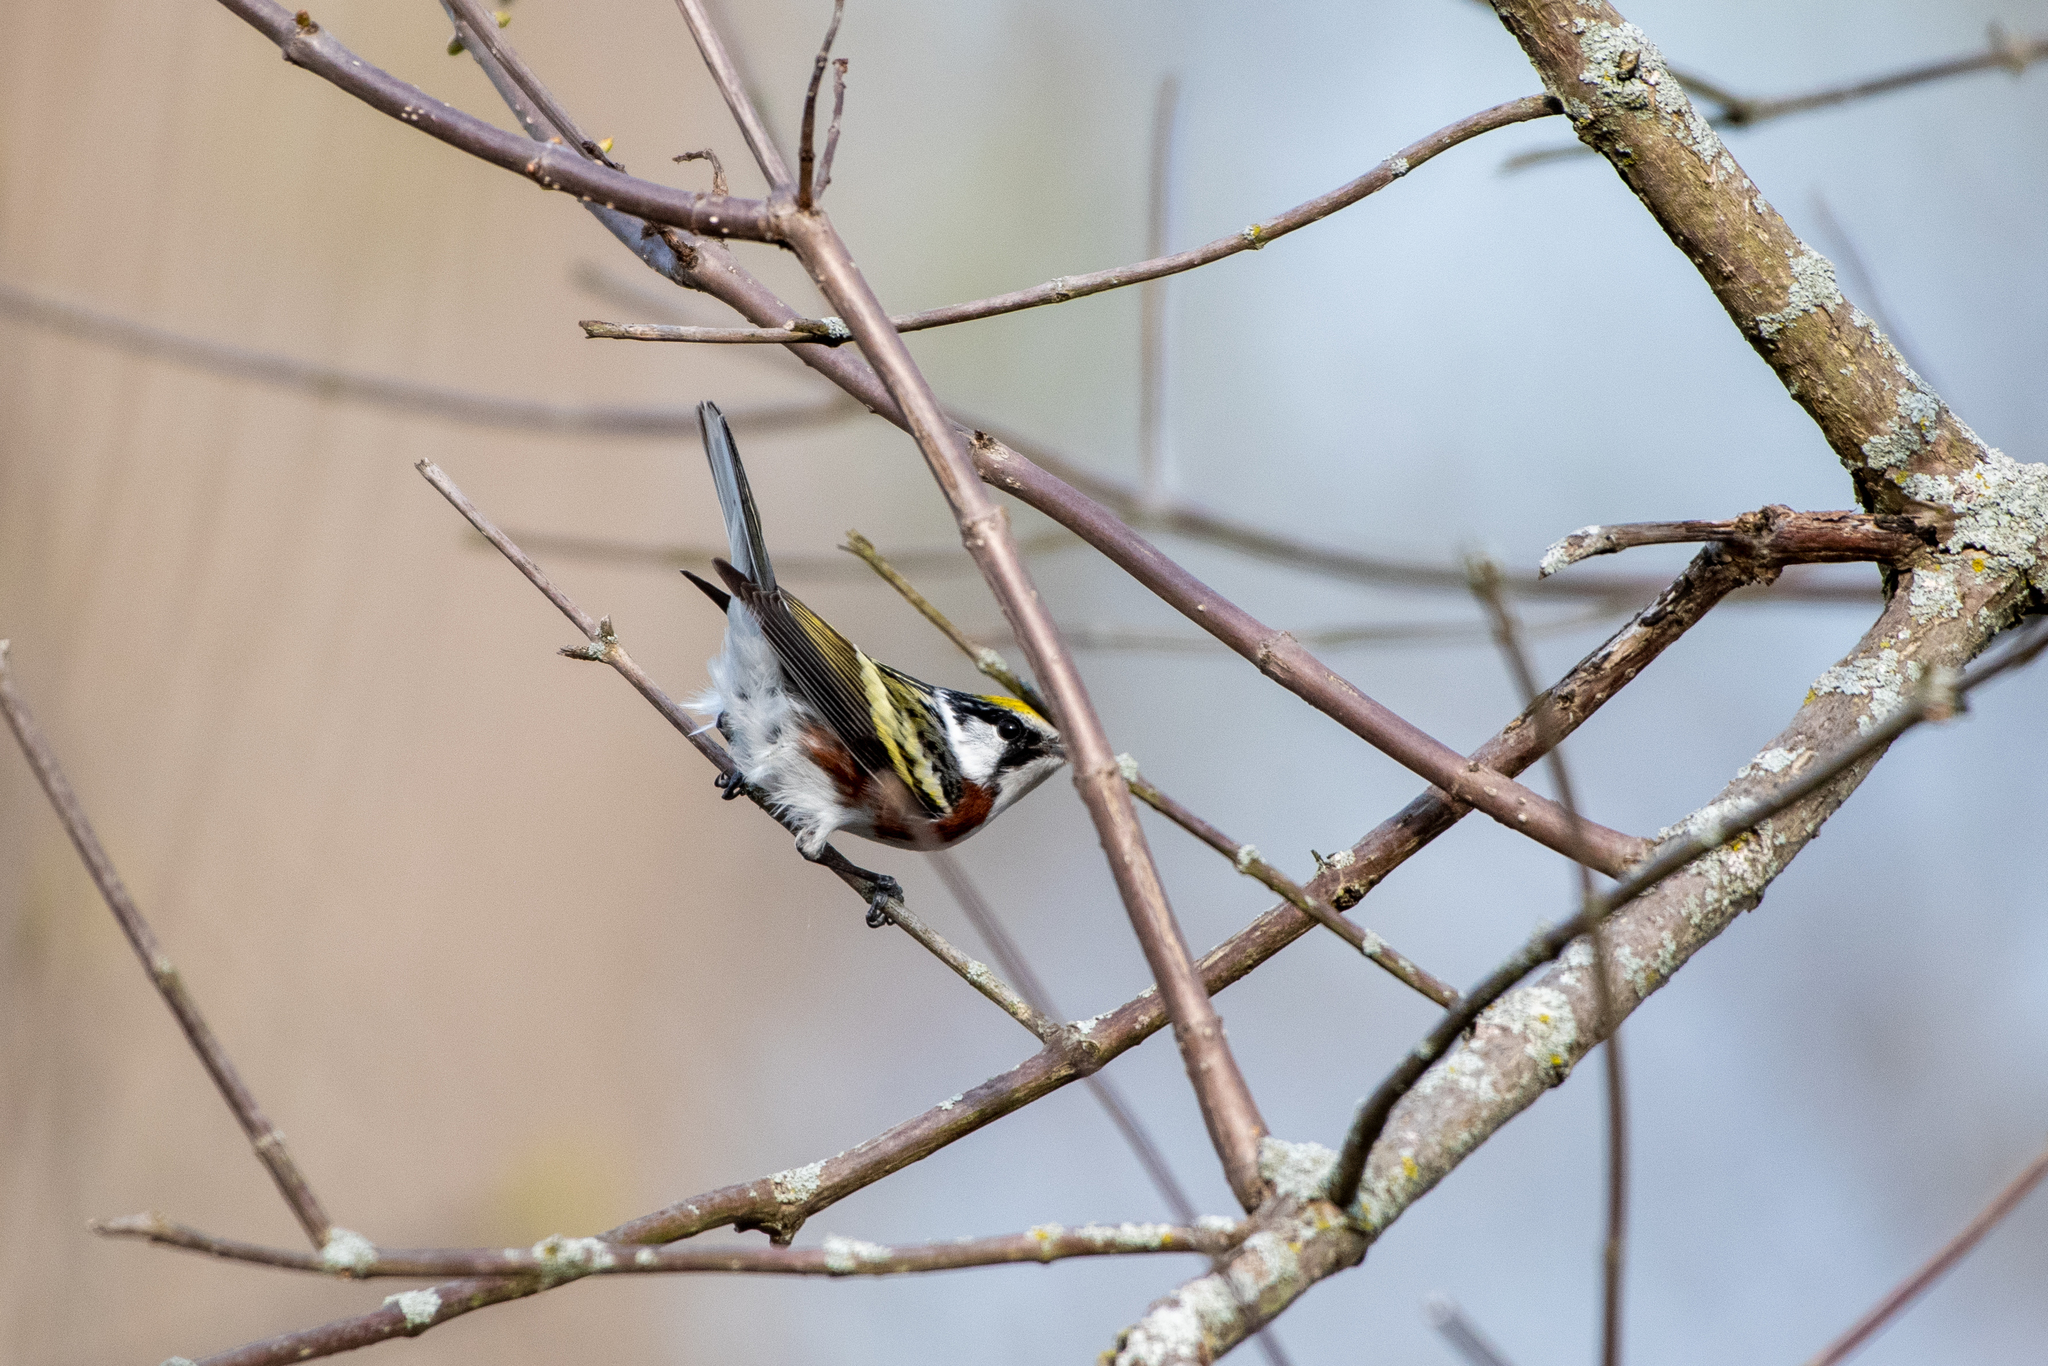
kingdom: Animalia
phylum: Chordata
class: Aves
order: Passeriformes
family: Parulidae
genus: Setophaga
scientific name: Setophaga pensylvanica
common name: Chestnut-sided warbler
